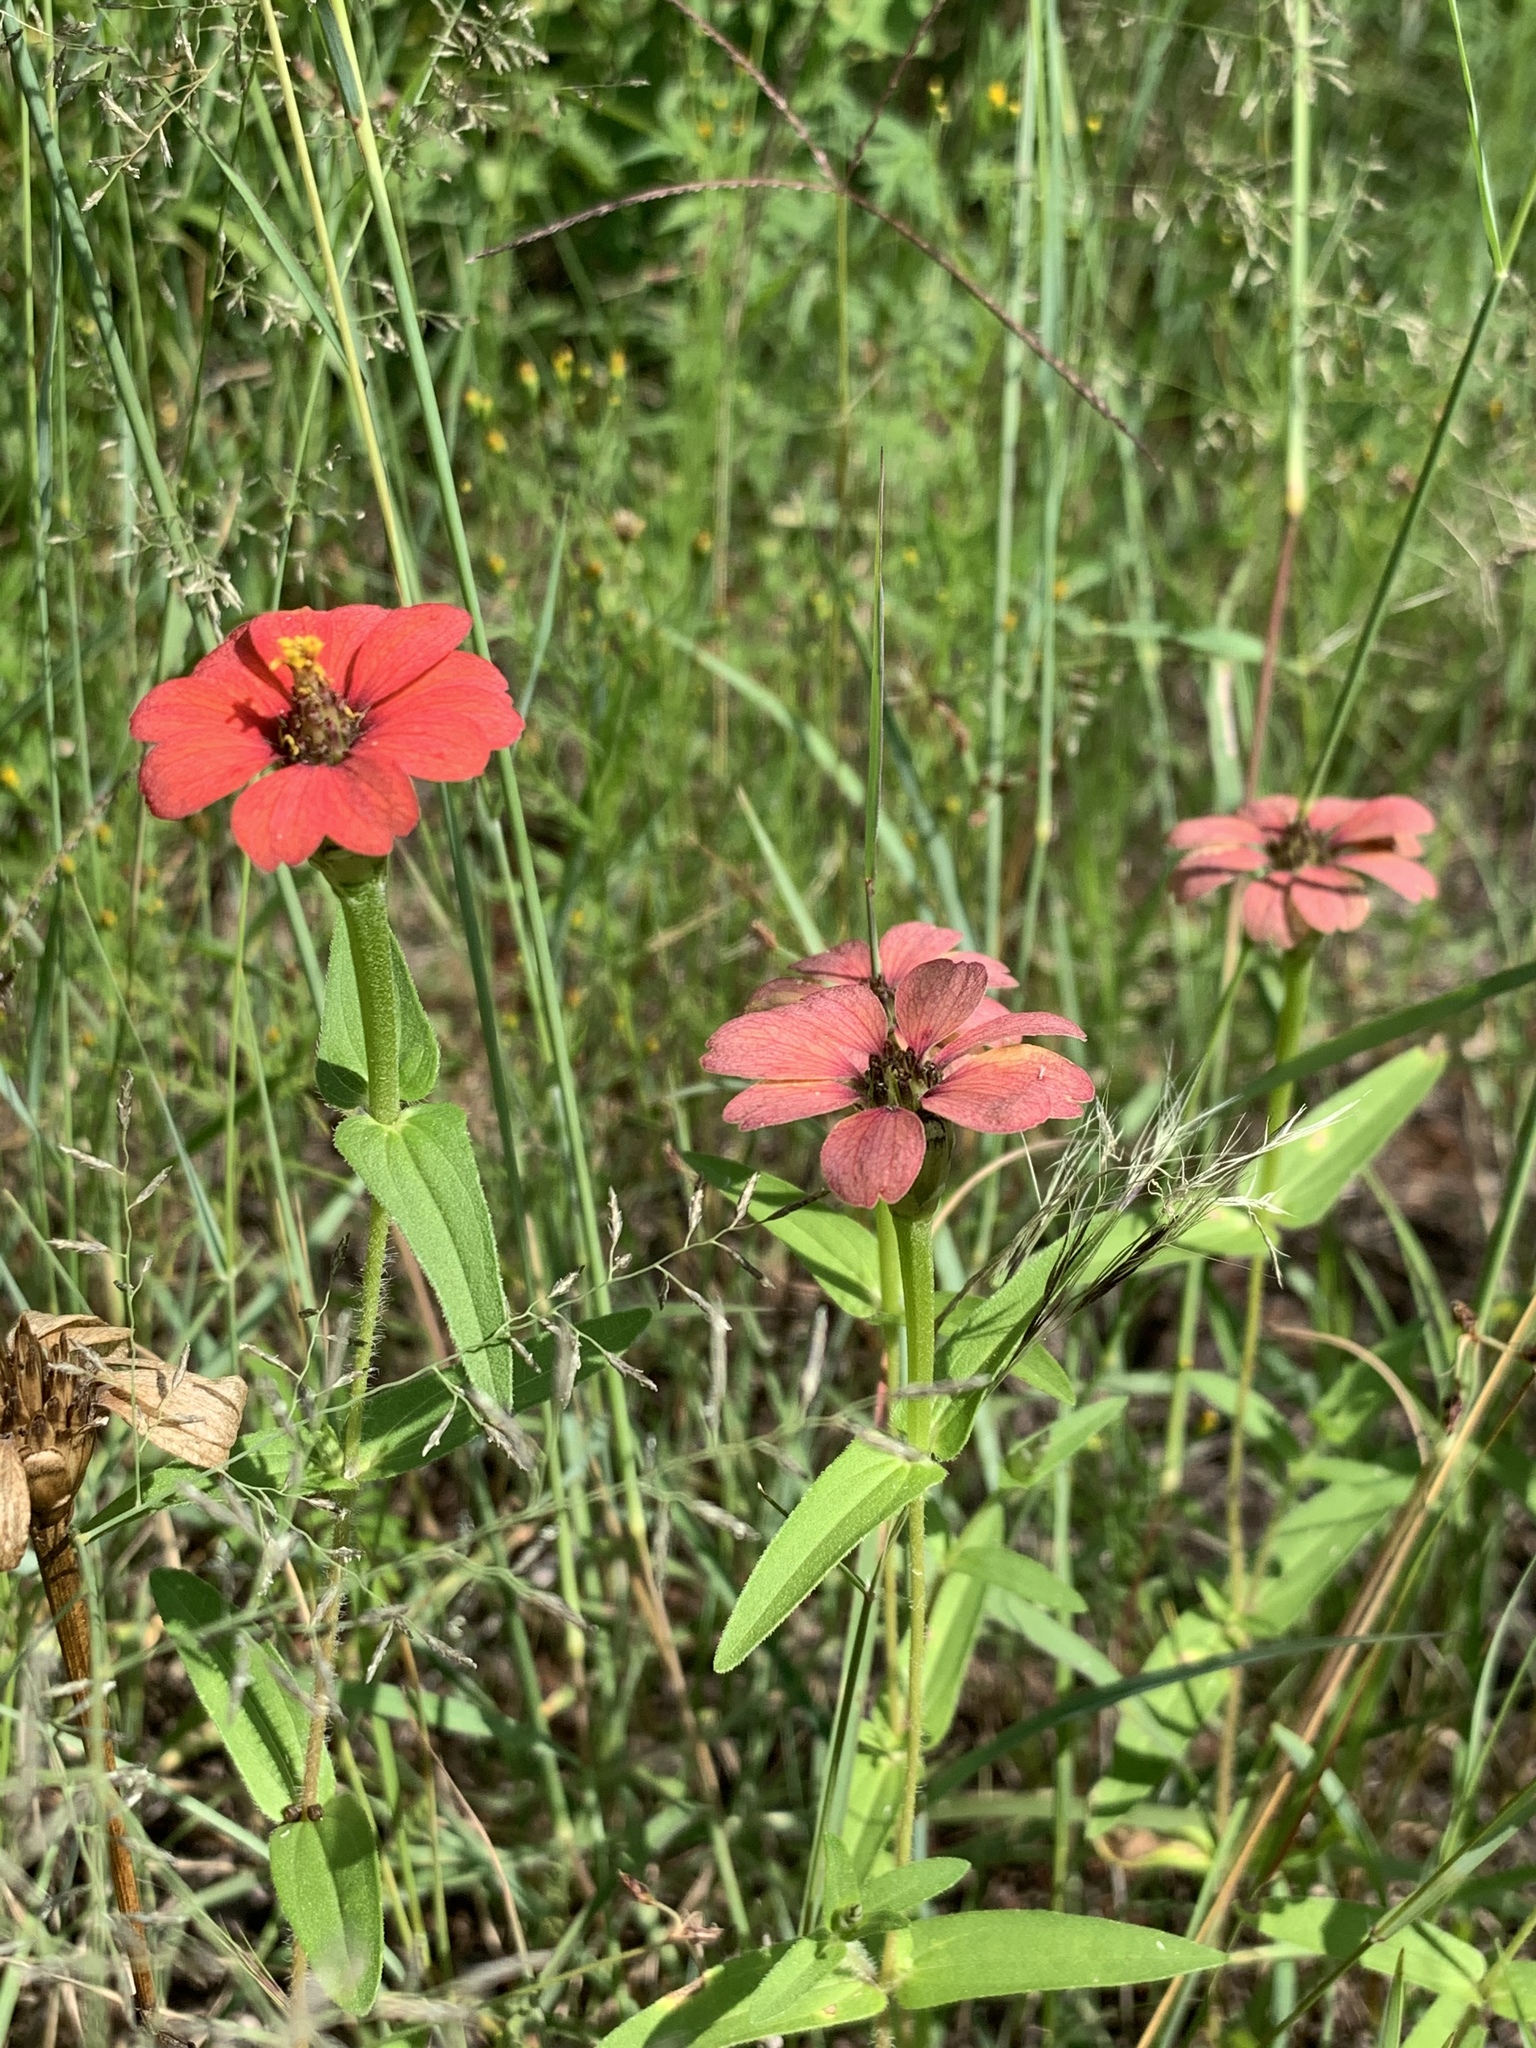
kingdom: Plantae
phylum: Tracheophyta
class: Magnoliopsida
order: Asterales
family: Asteraceae
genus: Zinnia
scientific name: Zinnia peruviana
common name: Peruvian zinnia
